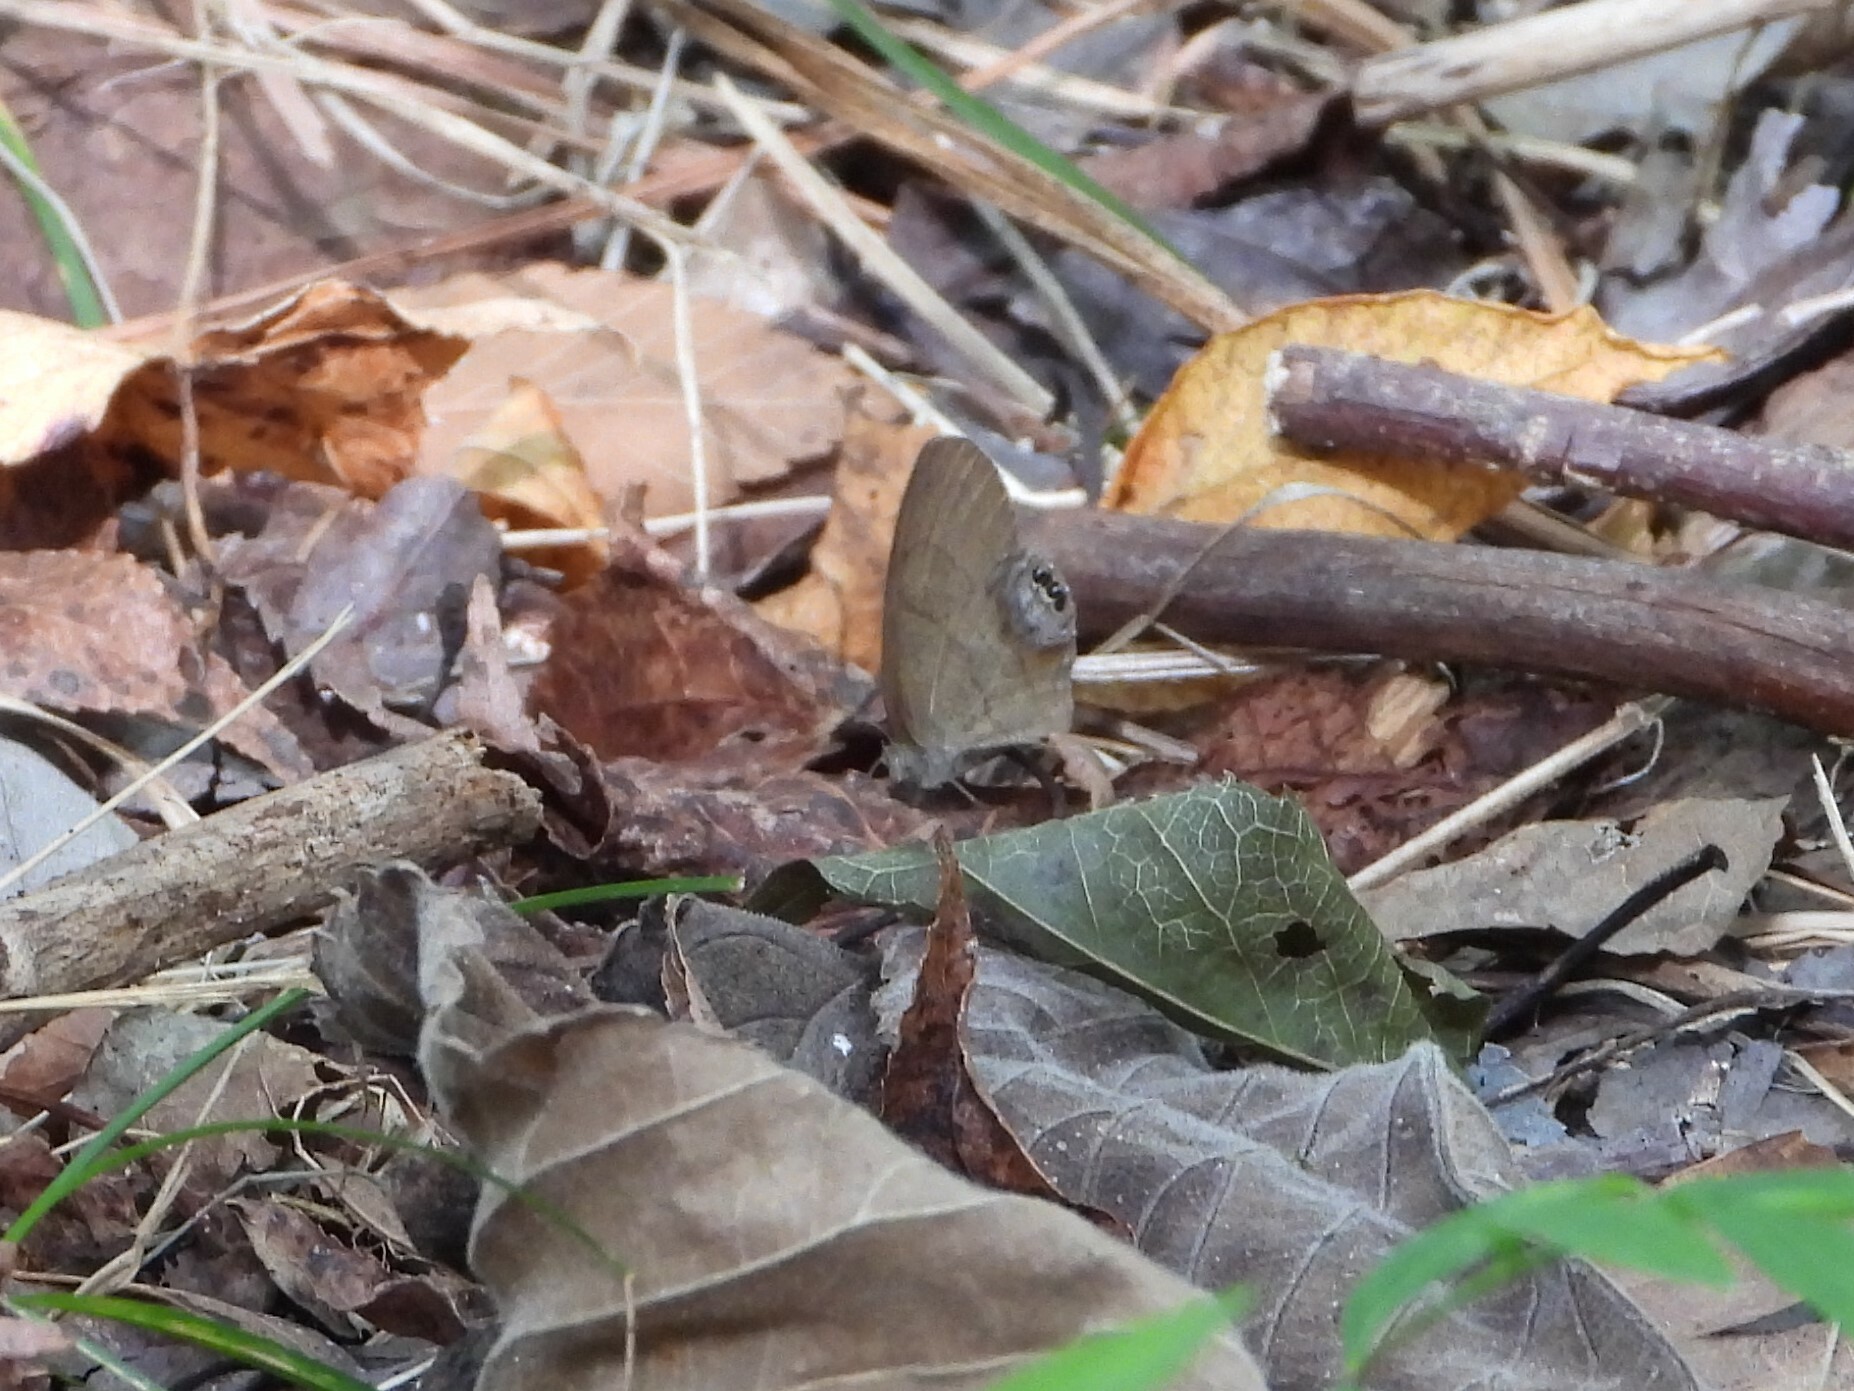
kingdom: Animalia
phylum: Arthropoda
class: Insecta
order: Lepidoptera
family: Nymphalidae
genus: Euptychia
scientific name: Euptychia cornelius
